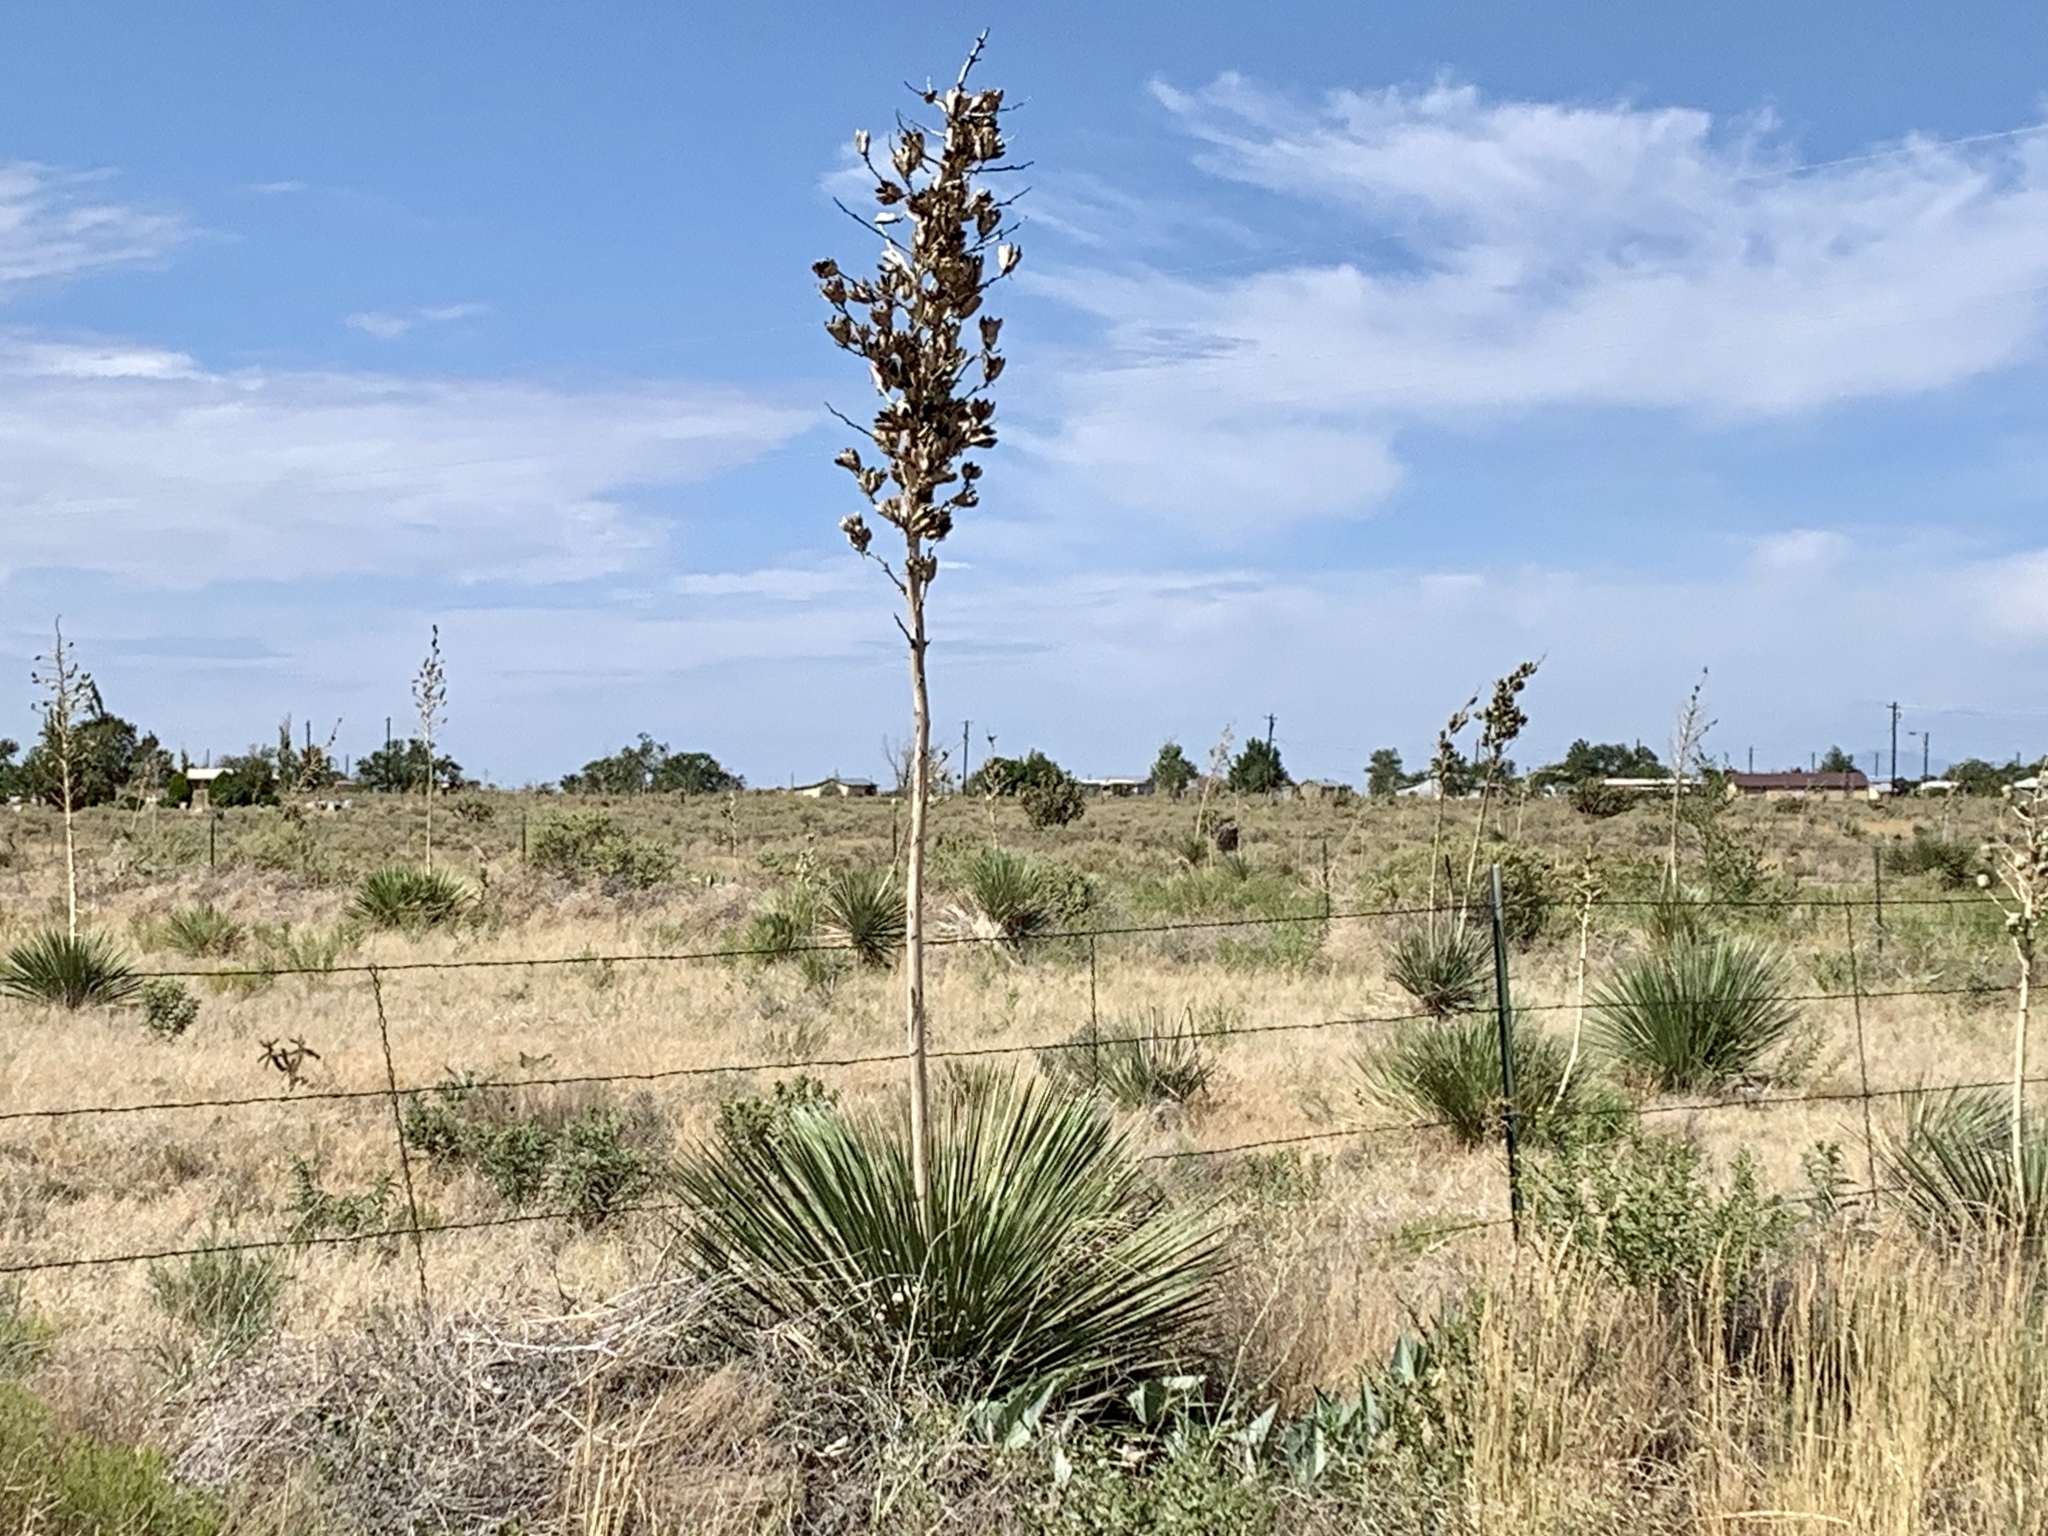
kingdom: Plantae
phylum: Tracheophyta
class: Liliopsida
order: Asparagales
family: Asparagaceae
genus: Yucca
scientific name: Yucca elata
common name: Palmella
